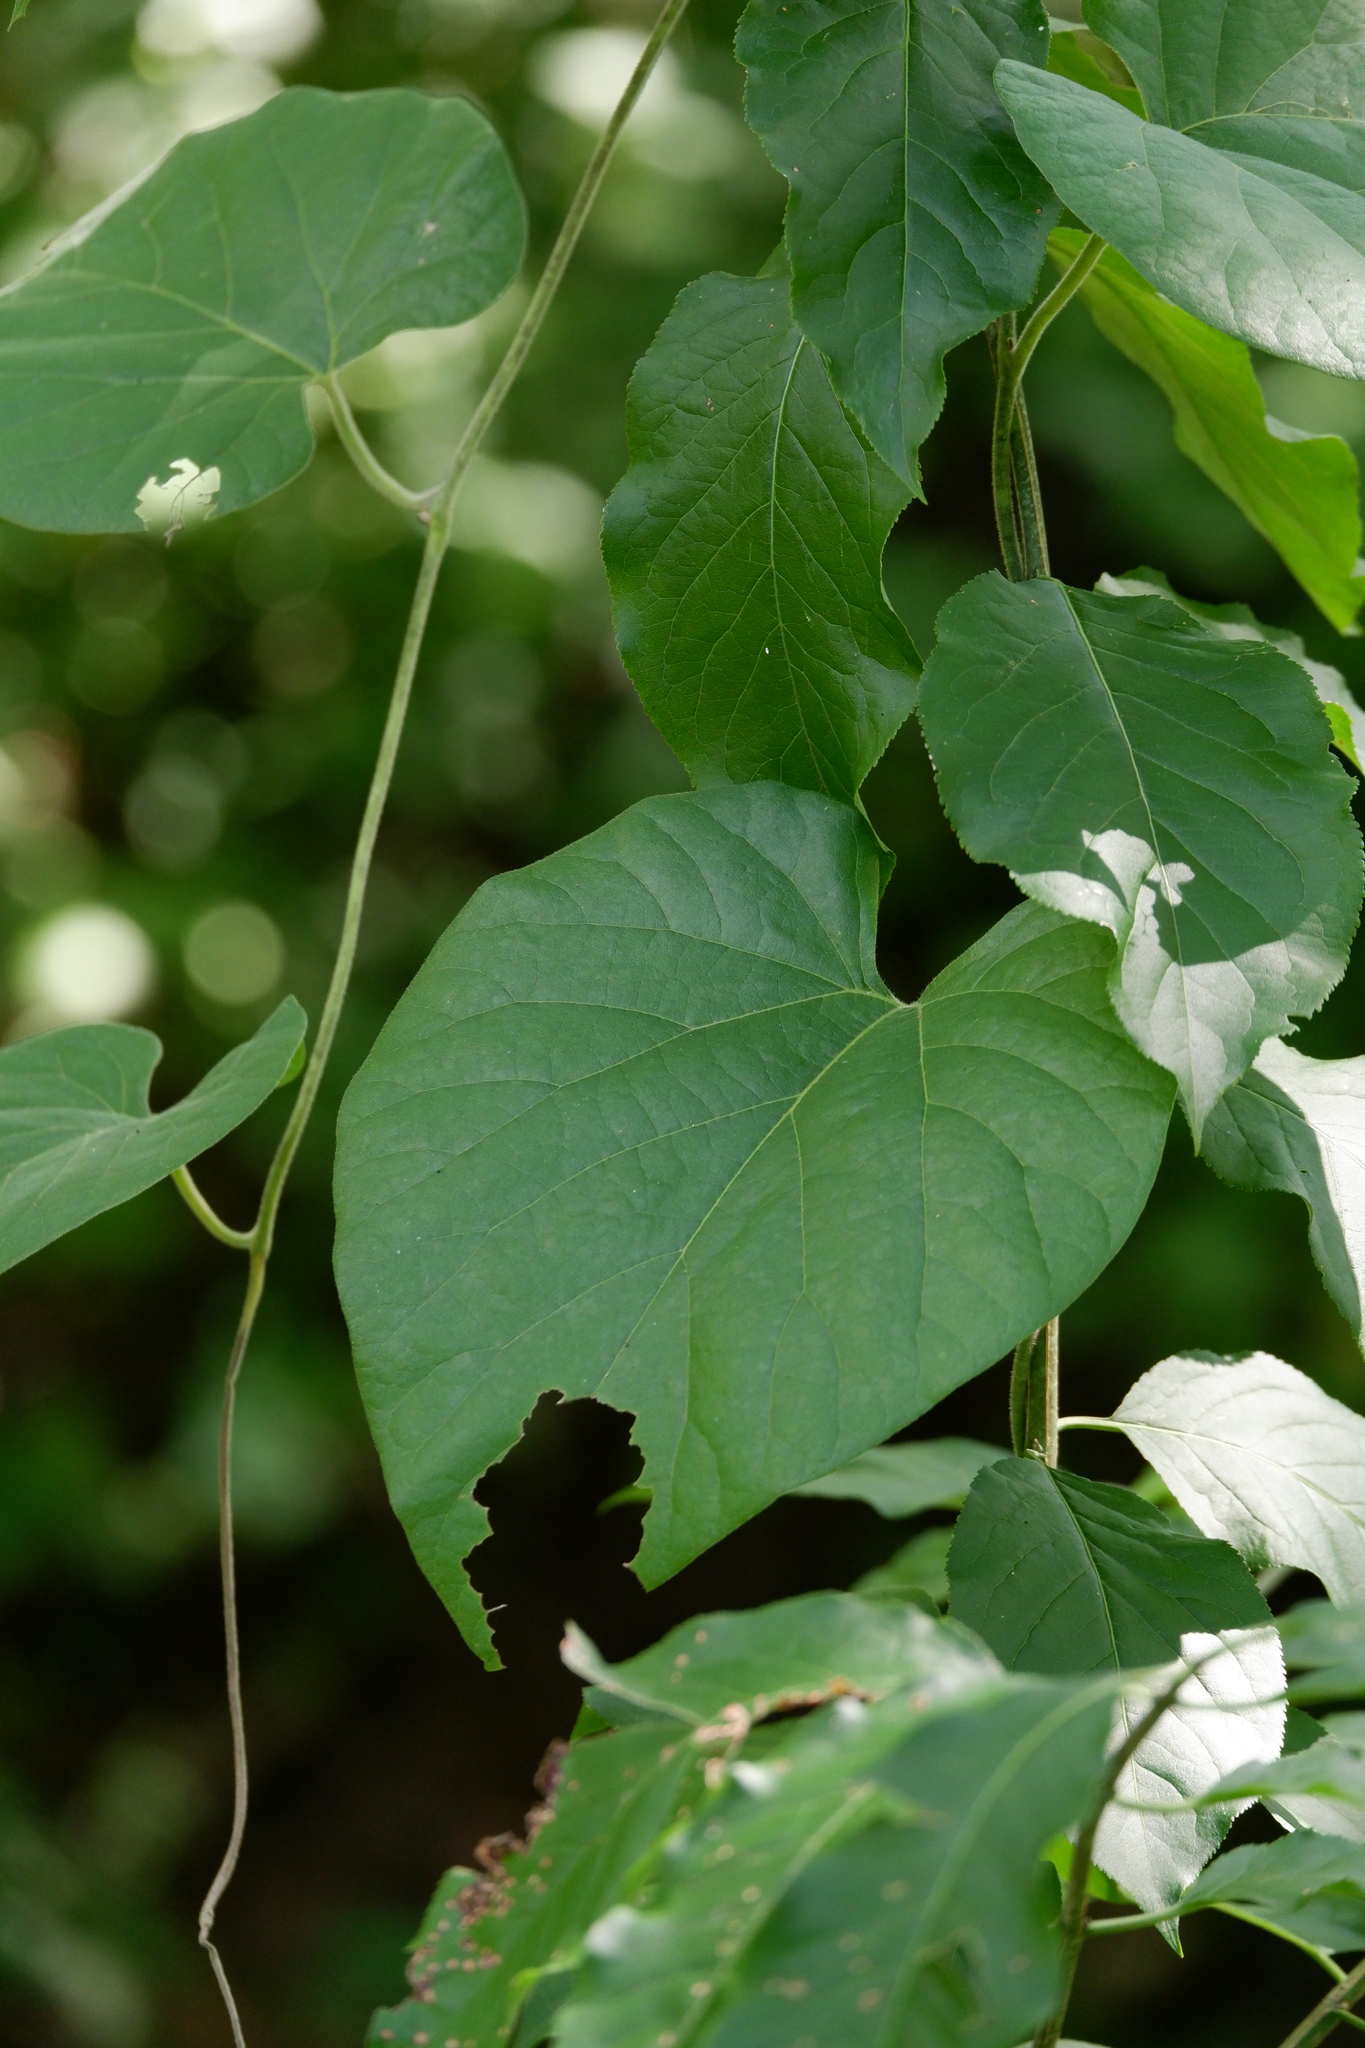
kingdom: Plantae
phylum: Tracheophyta
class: Magnoliopsida
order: Piperales
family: Aristolochiaceae
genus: Isotrema
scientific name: Isotrema tomentosum
